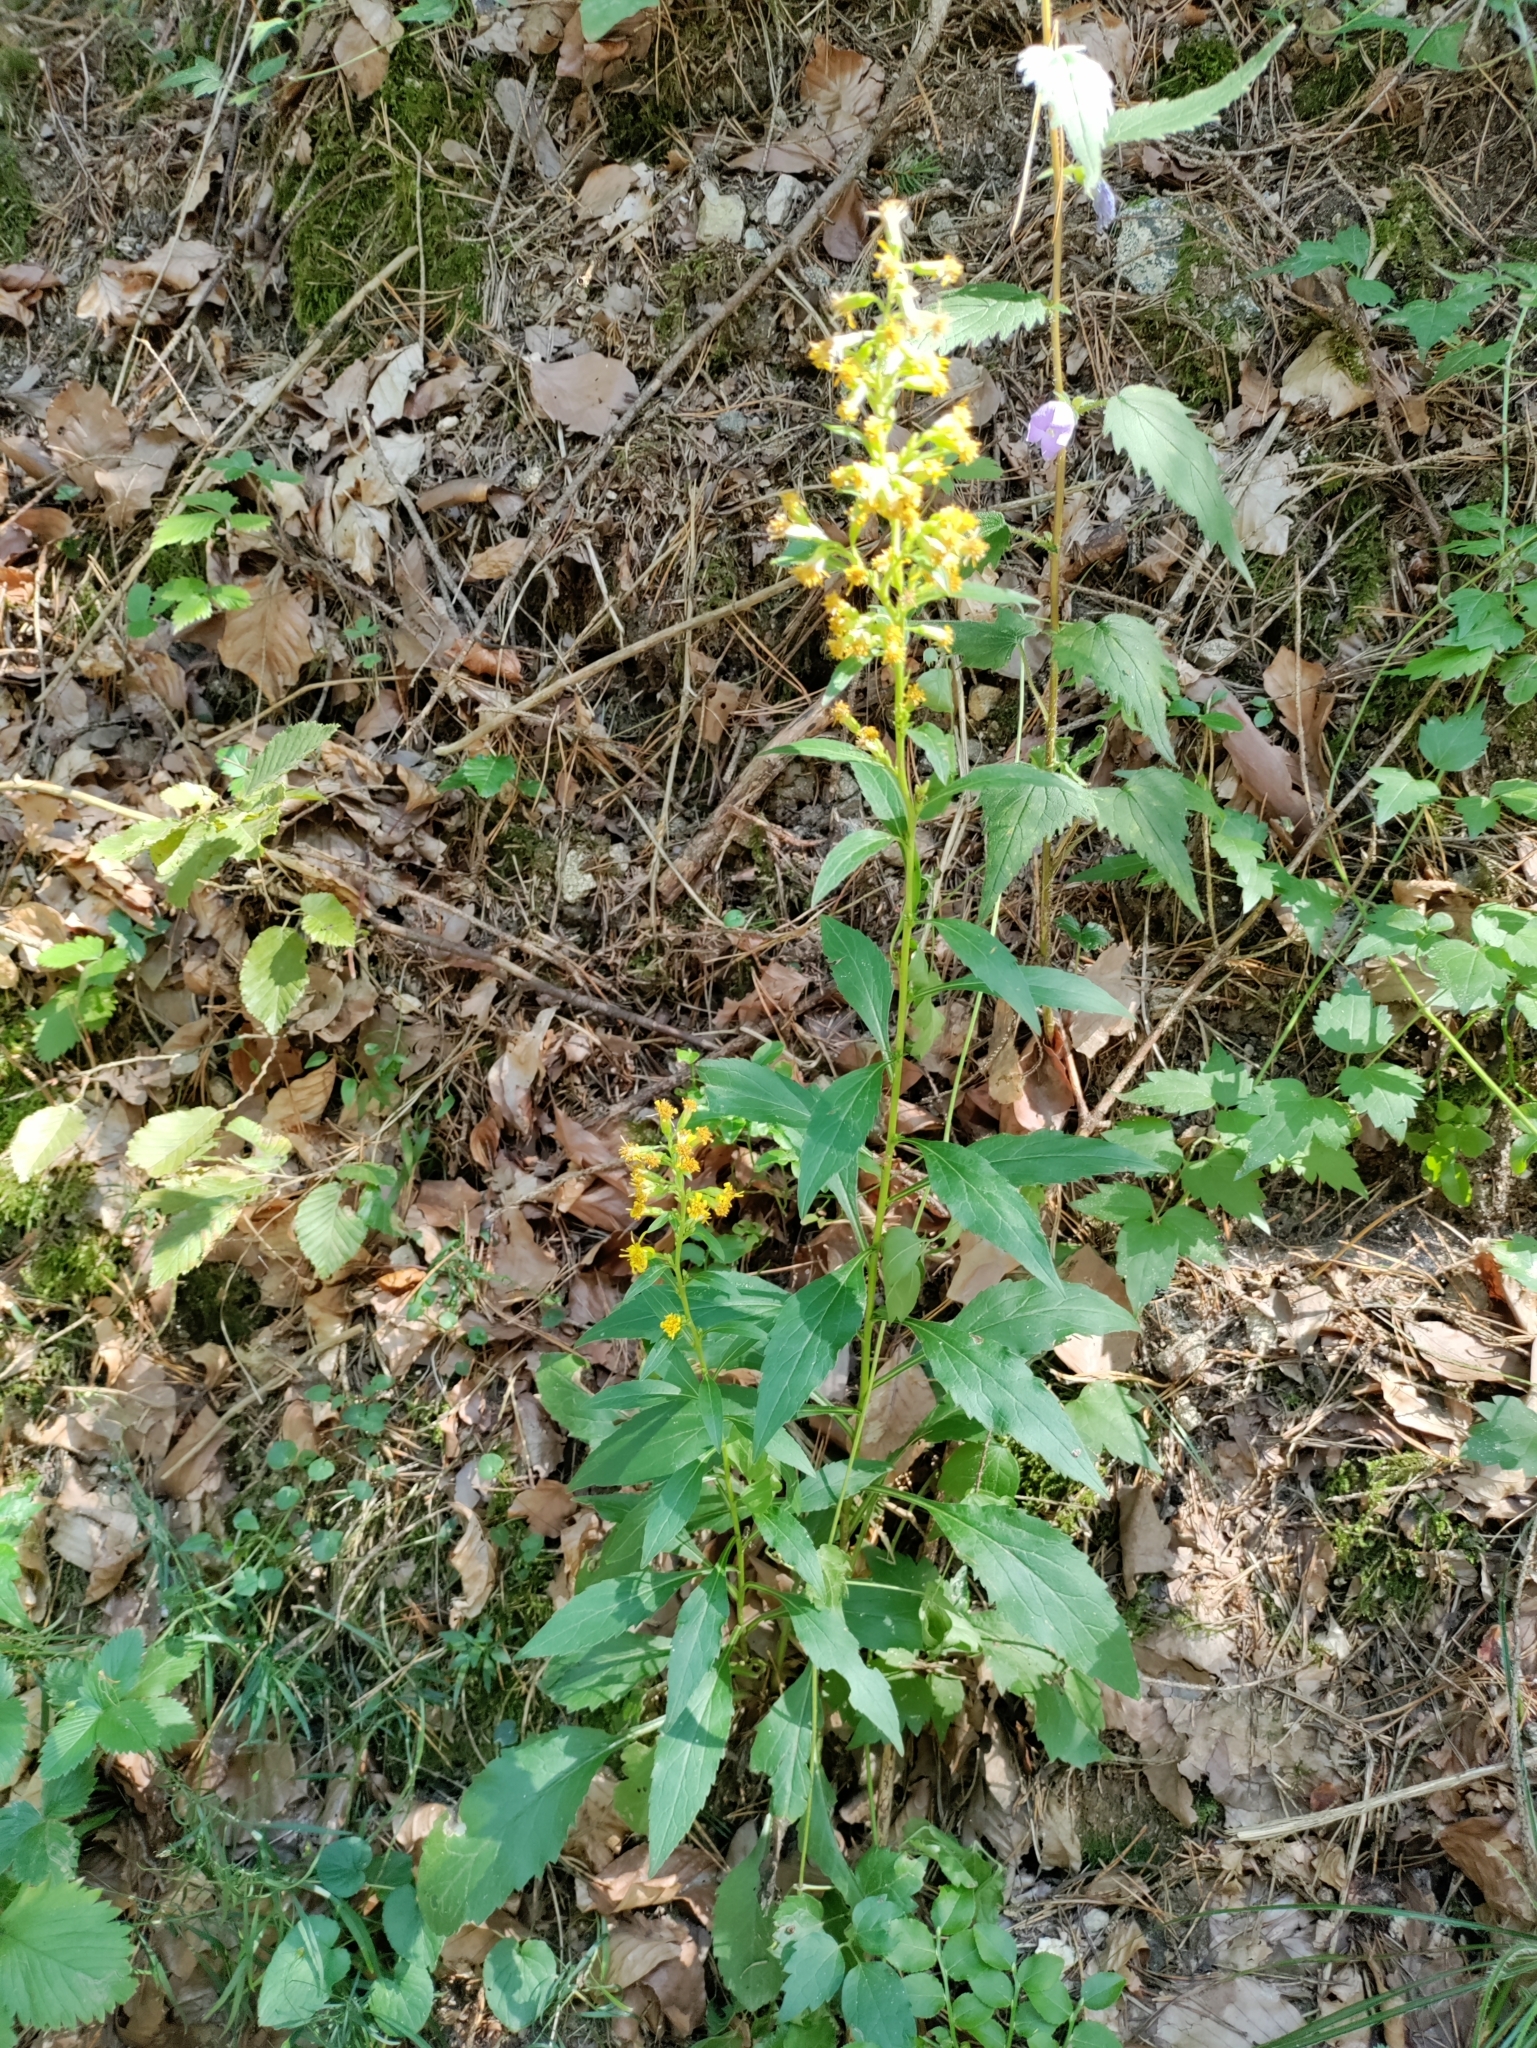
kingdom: Plantae
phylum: Tracheophyta
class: Magnoliopsida
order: Asterales
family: Asteraceae
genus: Solidago
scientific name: Solidago virgaurea
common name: Goldenrod
